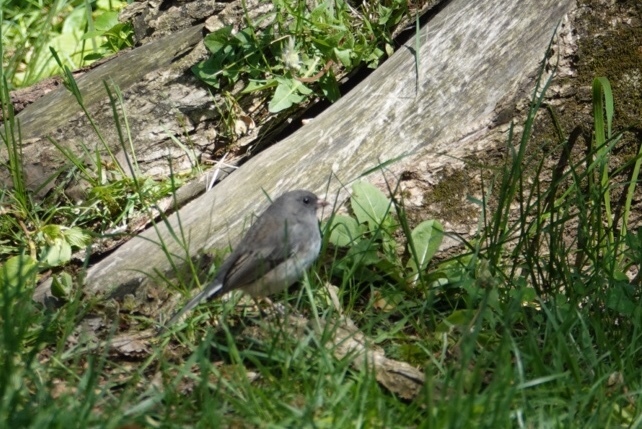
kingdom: Animalia
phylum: Chordata
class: Aves
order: Passeriformes
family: Passerellidae
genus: Junco
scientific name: Junco hyemalis
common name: Dark-eyed junco
